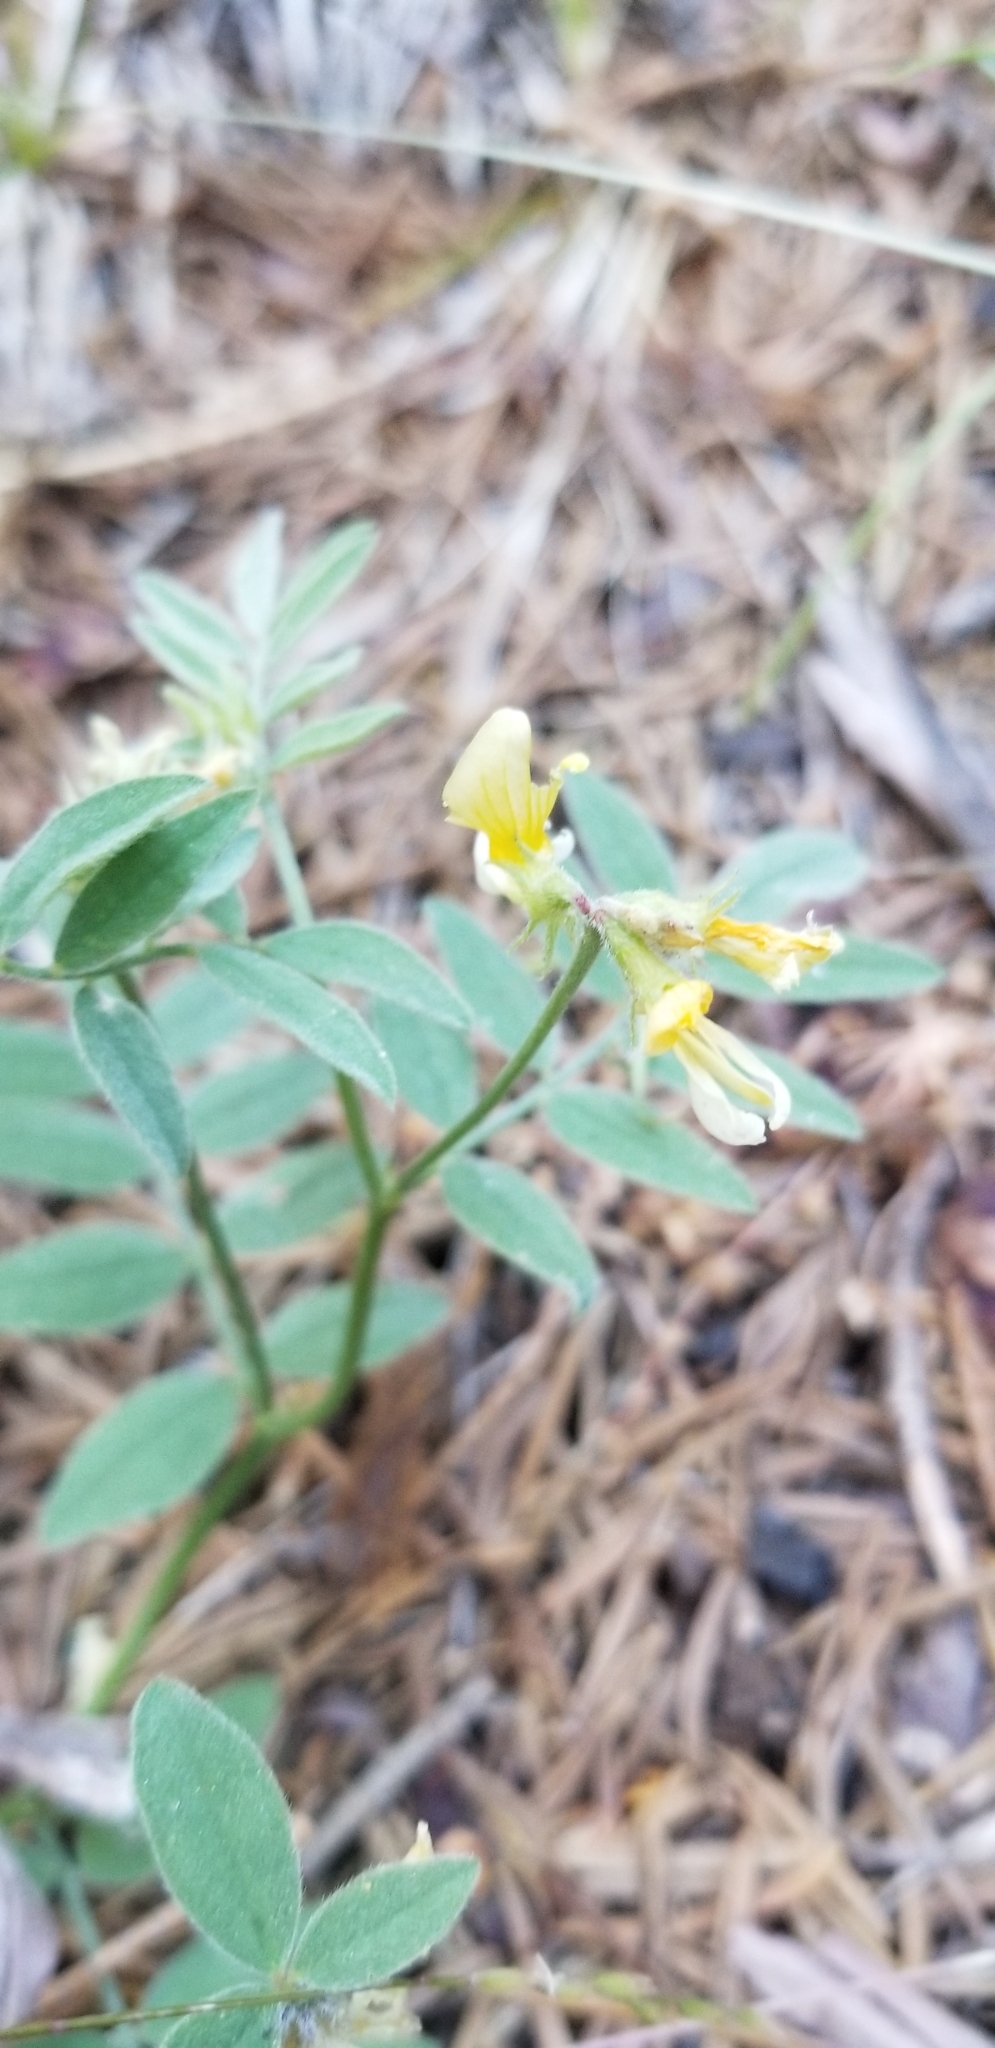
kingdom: Plantae
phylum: Tracheophyta
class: Magnoliopsida
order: Fabales
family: Fabaceae
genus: Hosackia
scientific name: Hosackia oblongifolia
